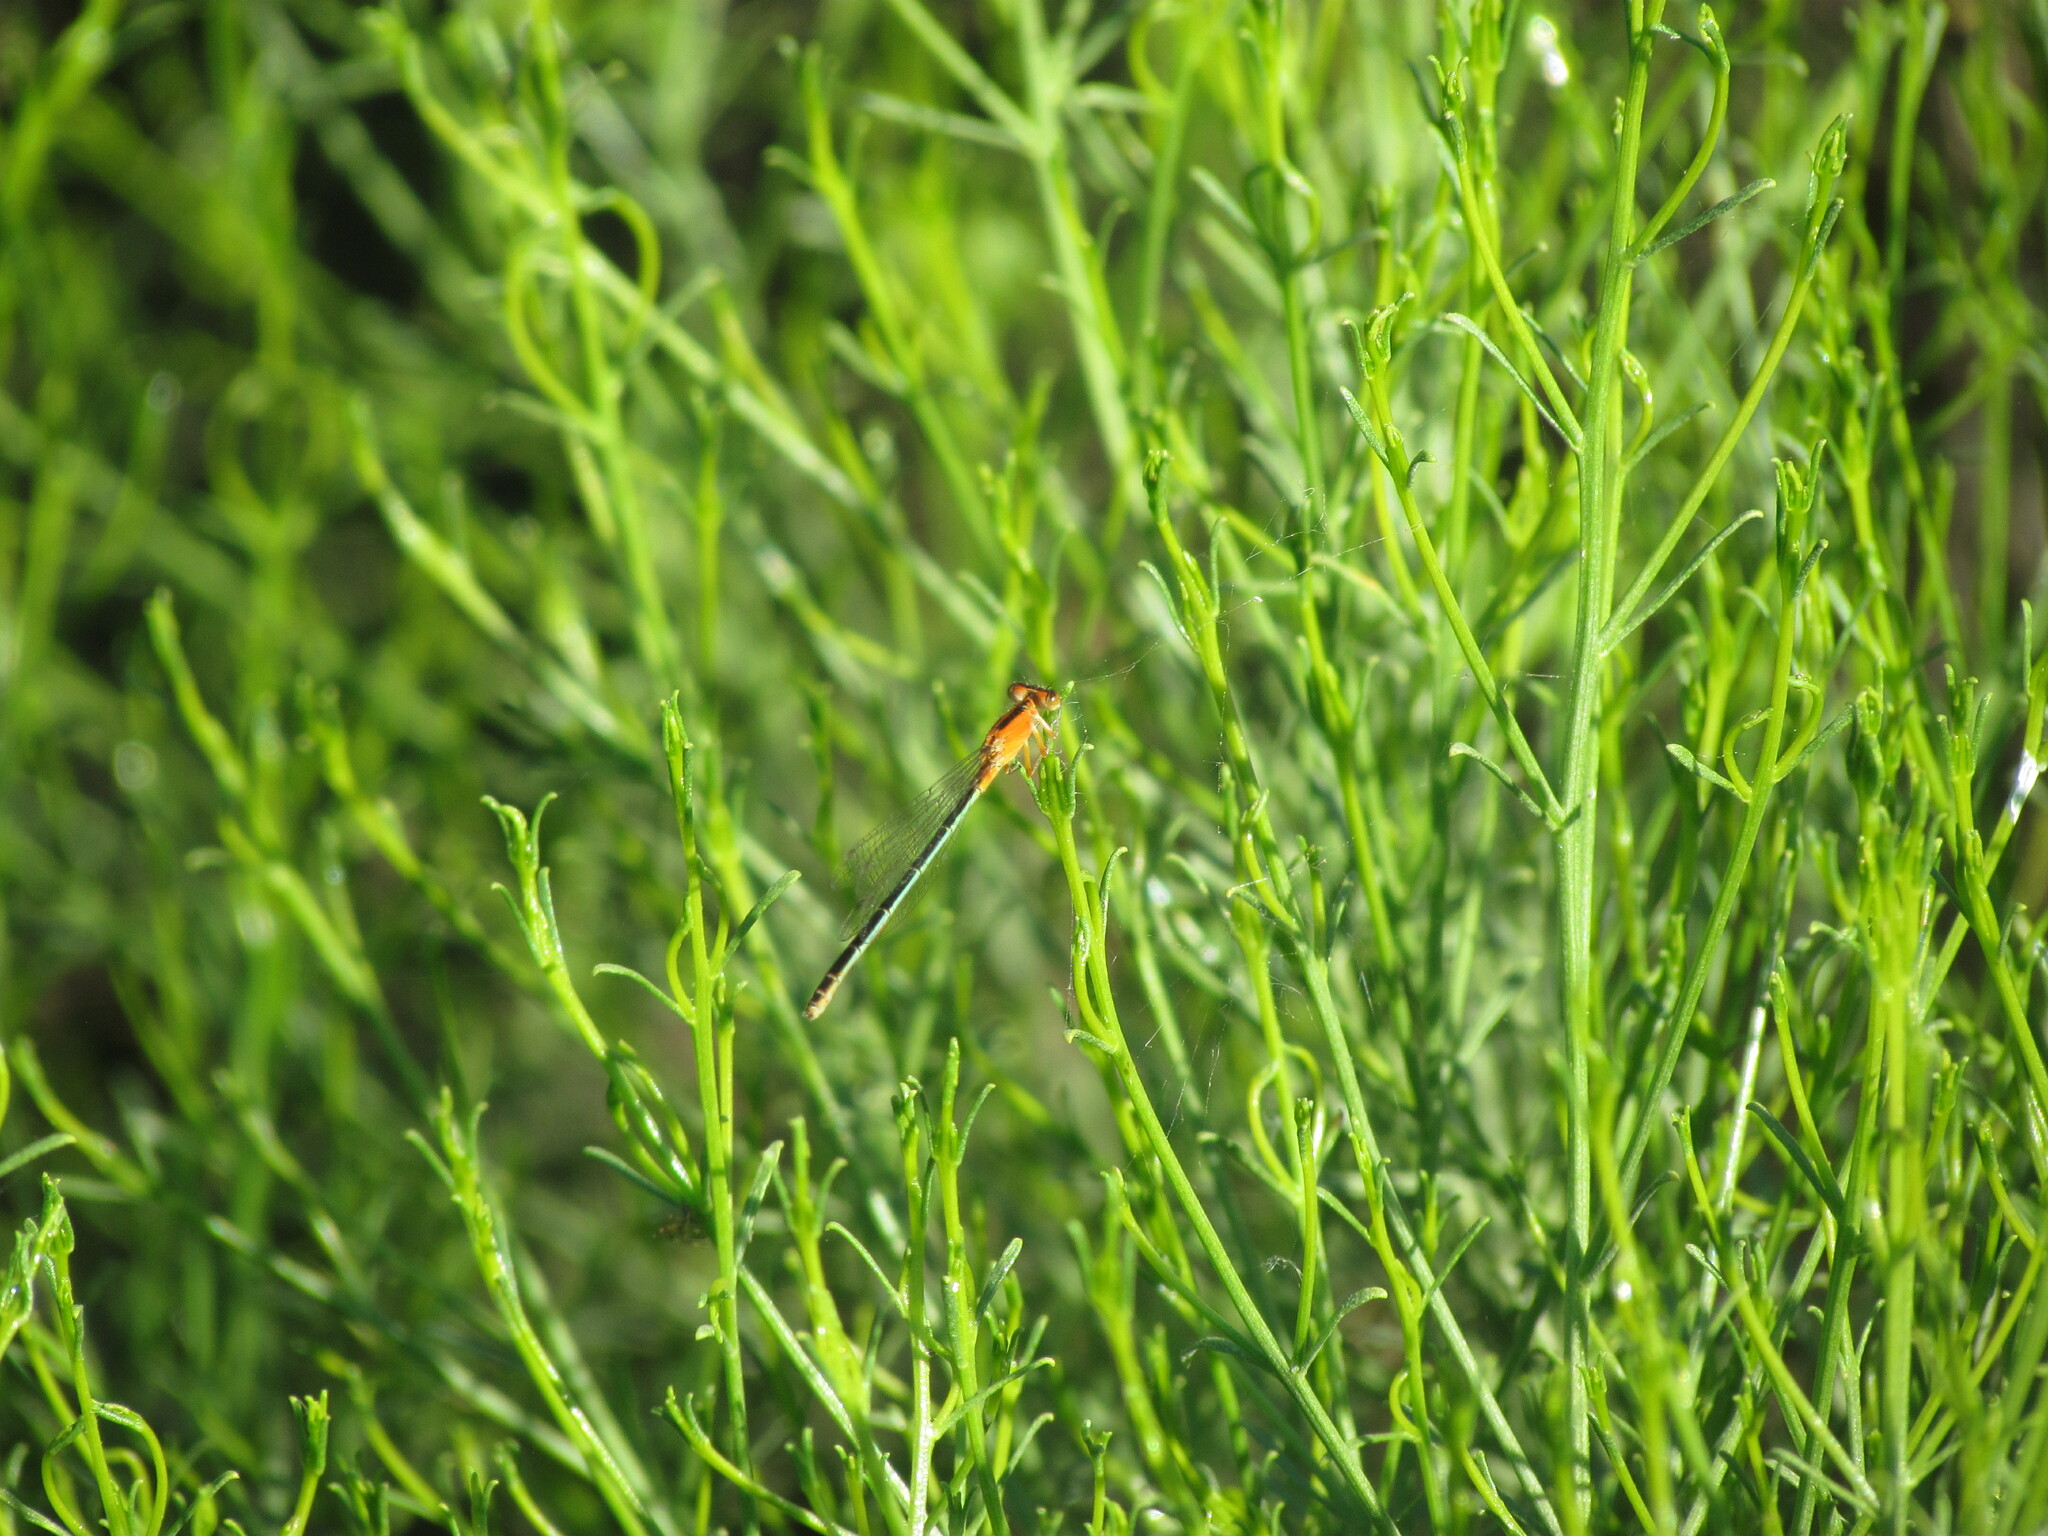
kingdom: Animalia
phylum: Arthropoda
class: Insecta
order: Odonata
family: Coenagrionidae
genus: Ischnura
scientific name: Ischnura fluviatilis
